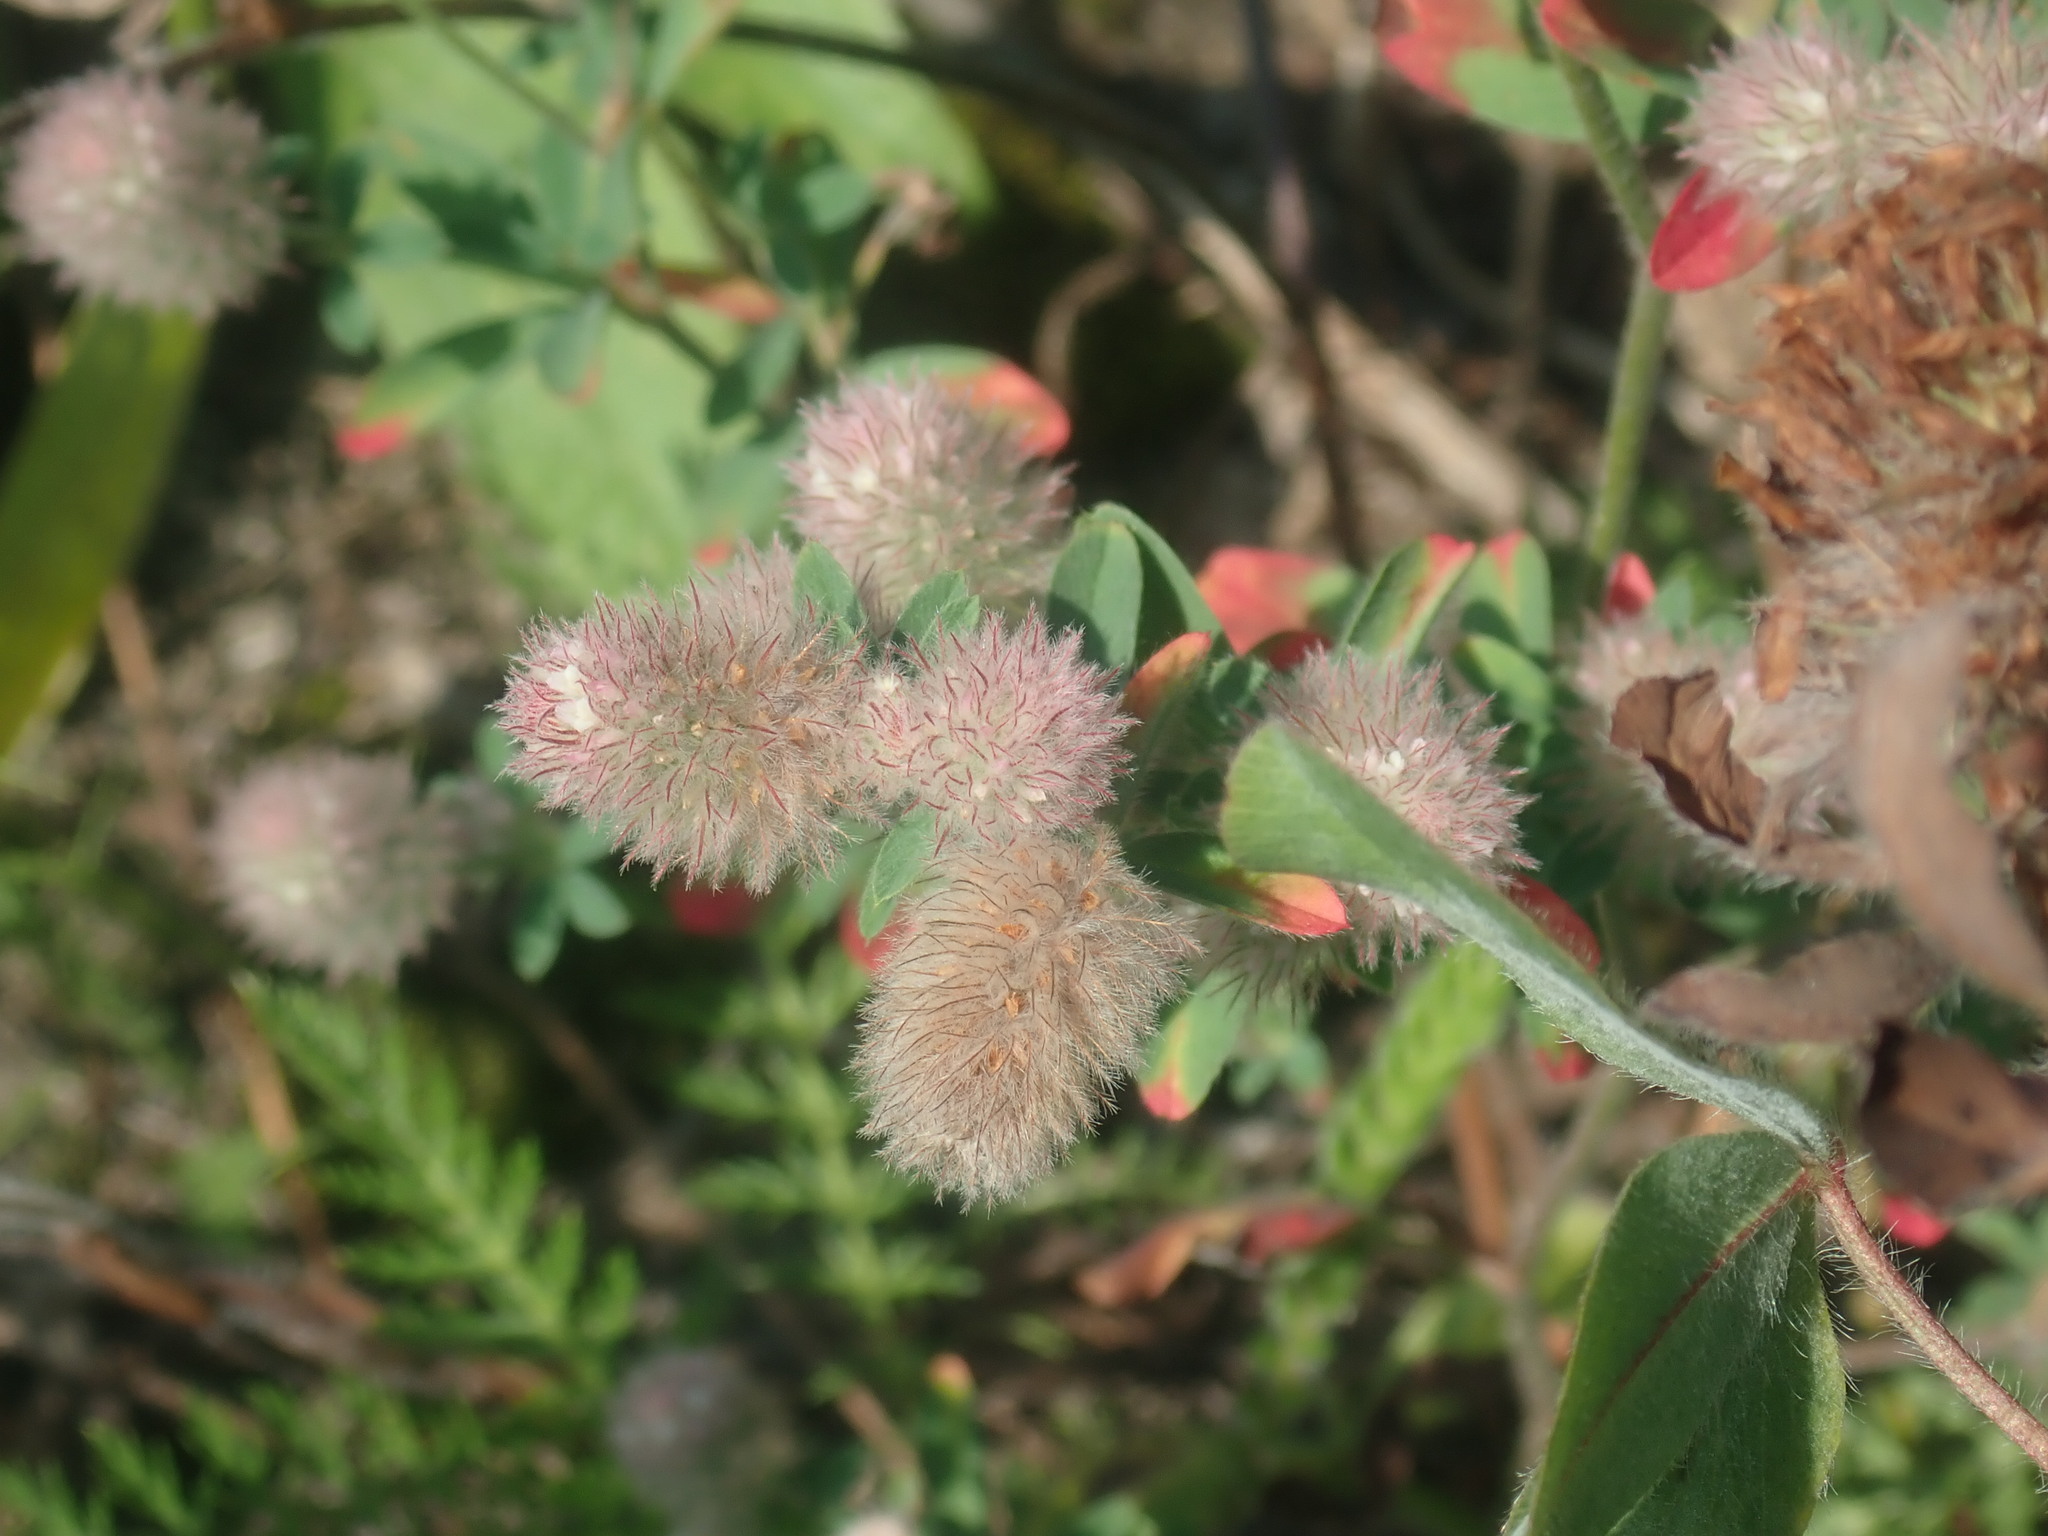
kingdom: Plantae
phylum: Tracheophyta
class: Magnoliopsida
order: Fabales
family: Fabaceae
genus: Trifolium
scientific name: Trifolium arvense
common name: Hare's-foot clover
